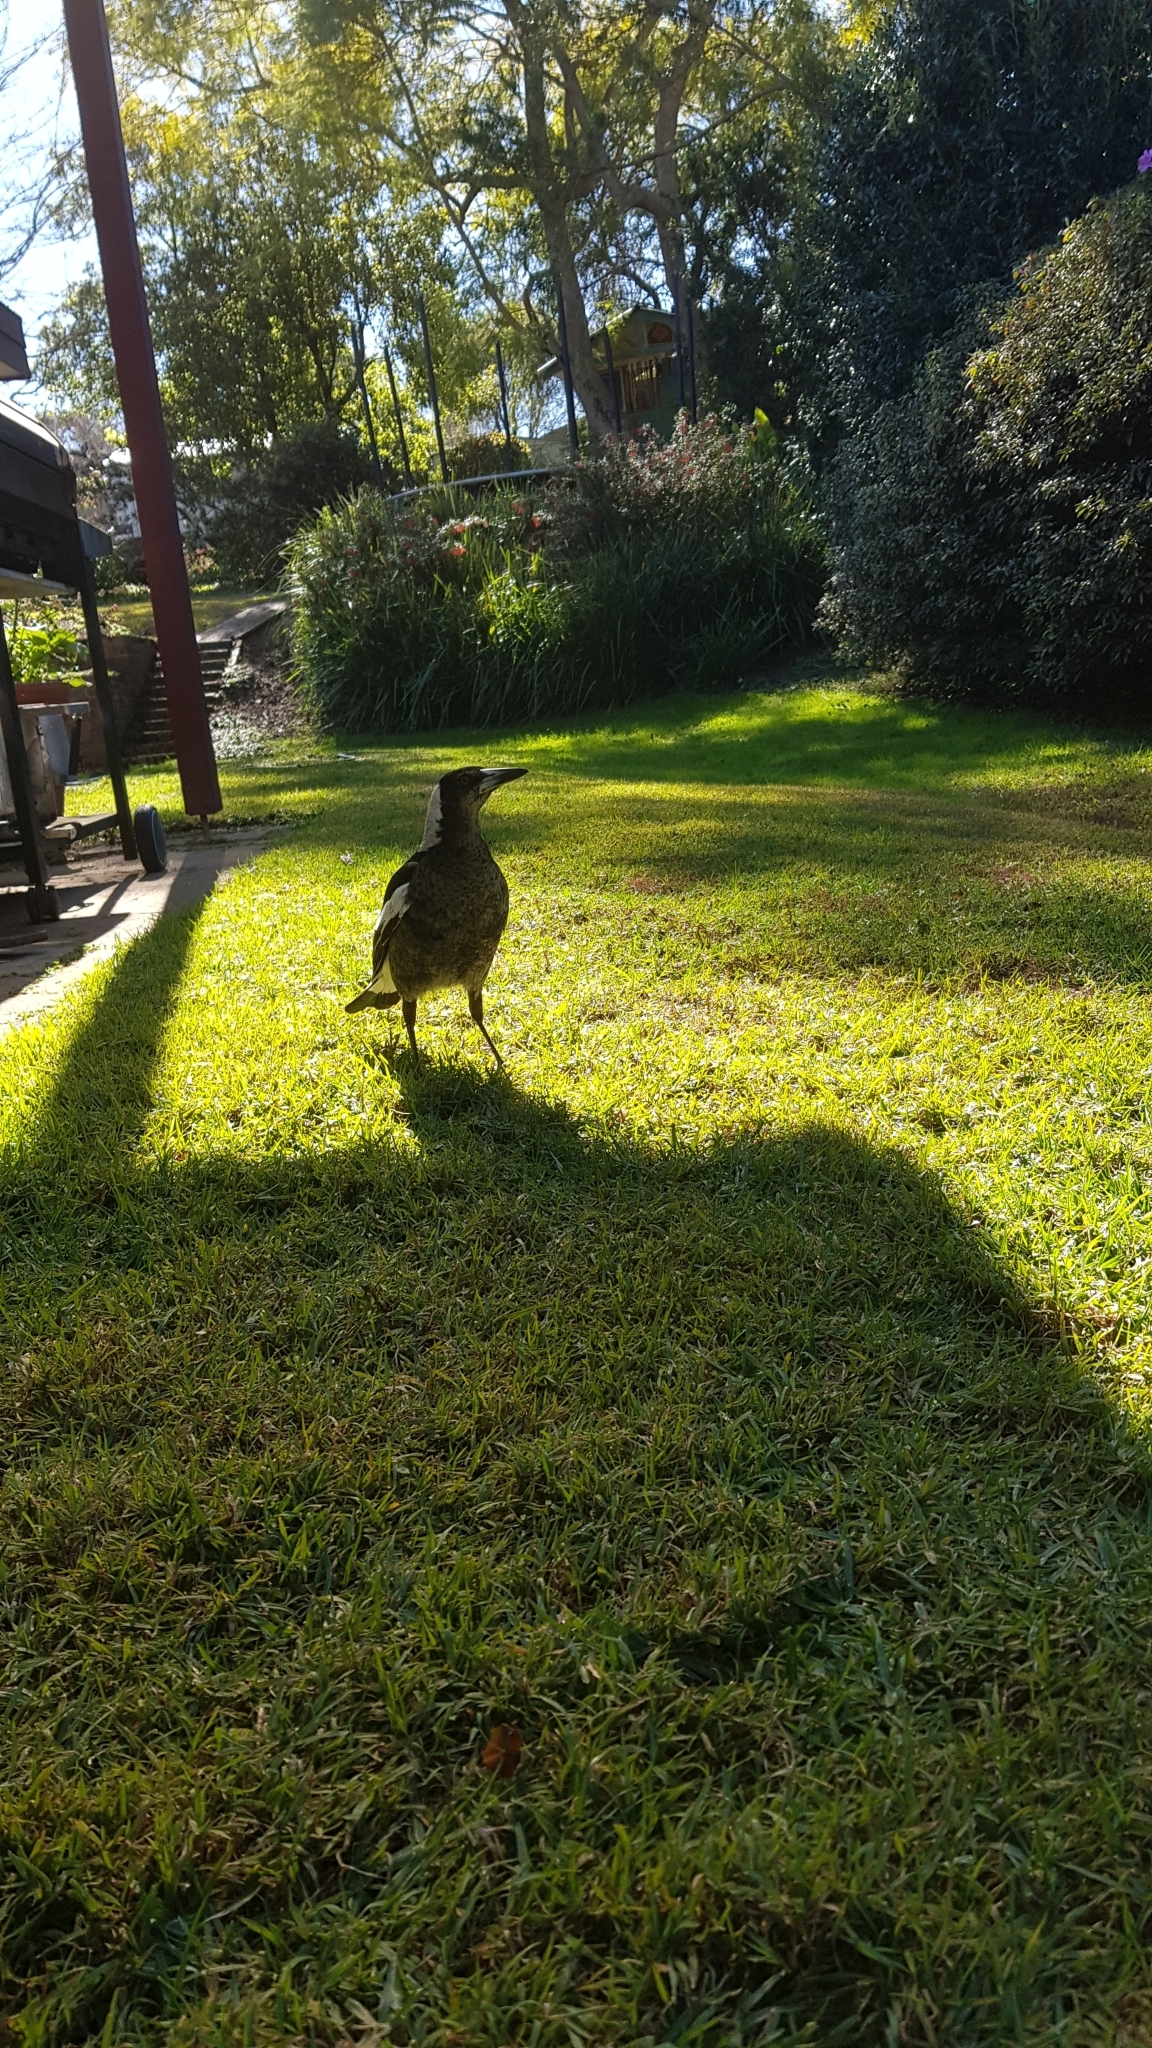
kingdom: Animalia
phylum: Chordata
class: Aves
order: Passeriformes
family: Cracticidae
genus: Gymnorhina
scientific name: Gymnorhina tibicen
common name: Australian magpie
